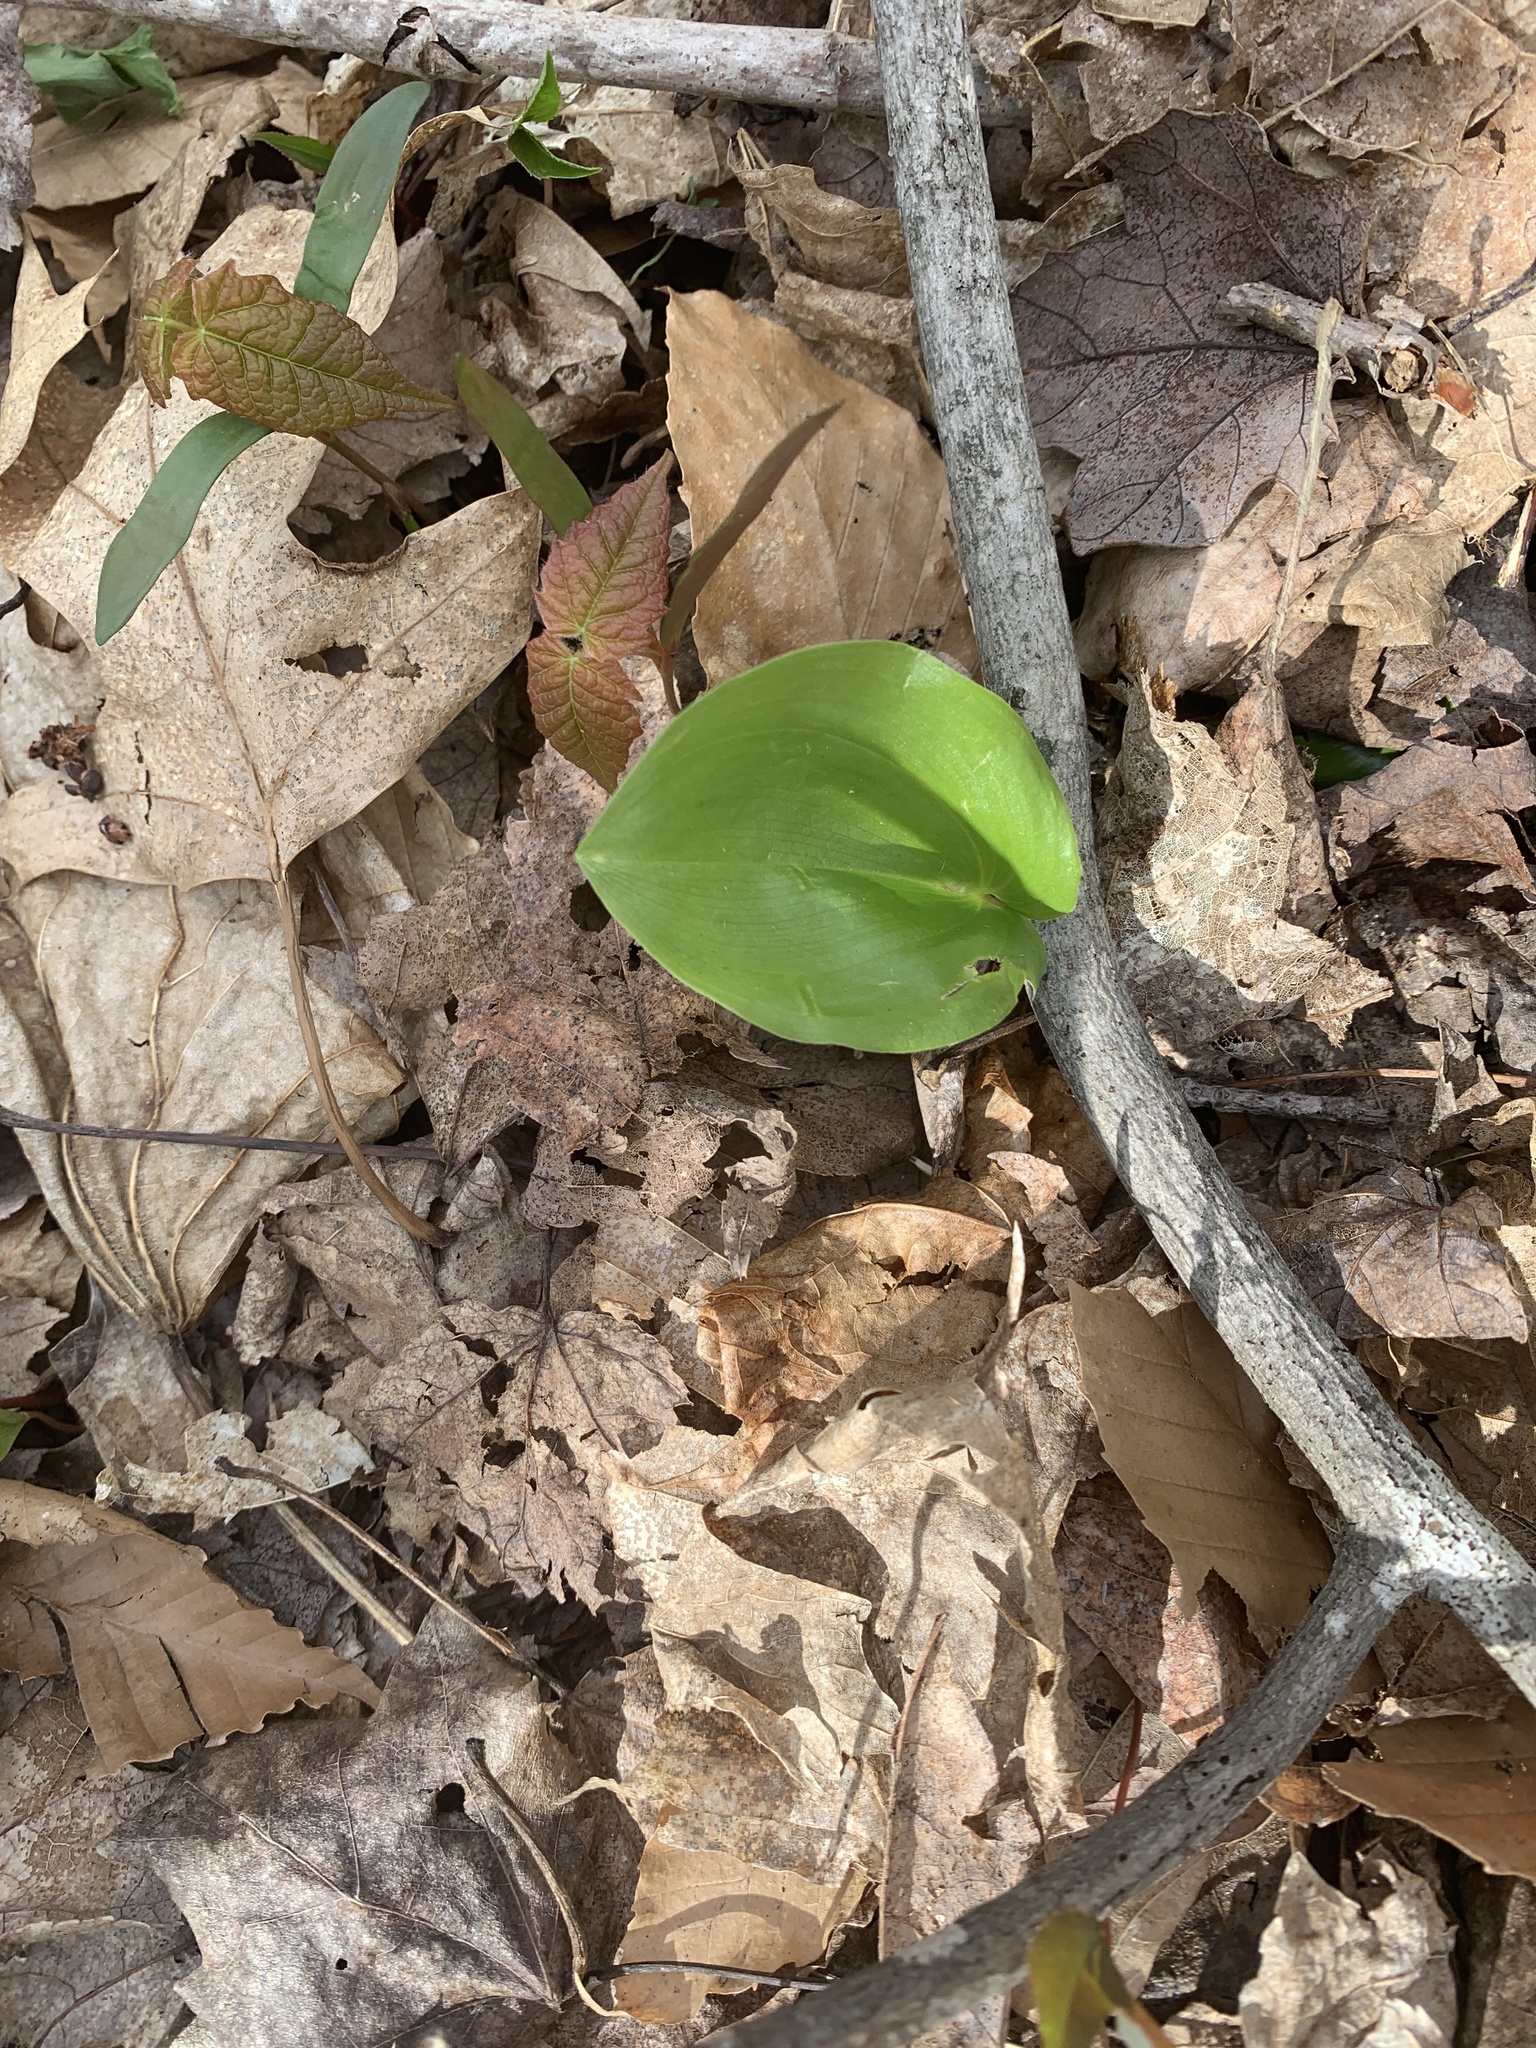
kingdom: Plantae
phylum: Tracheophyta
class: Liliopsida
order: Asparagales
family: Asparagaceae
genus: Maianthemum
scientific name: Maianthemum canadense
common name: False lily-of-the-valley
